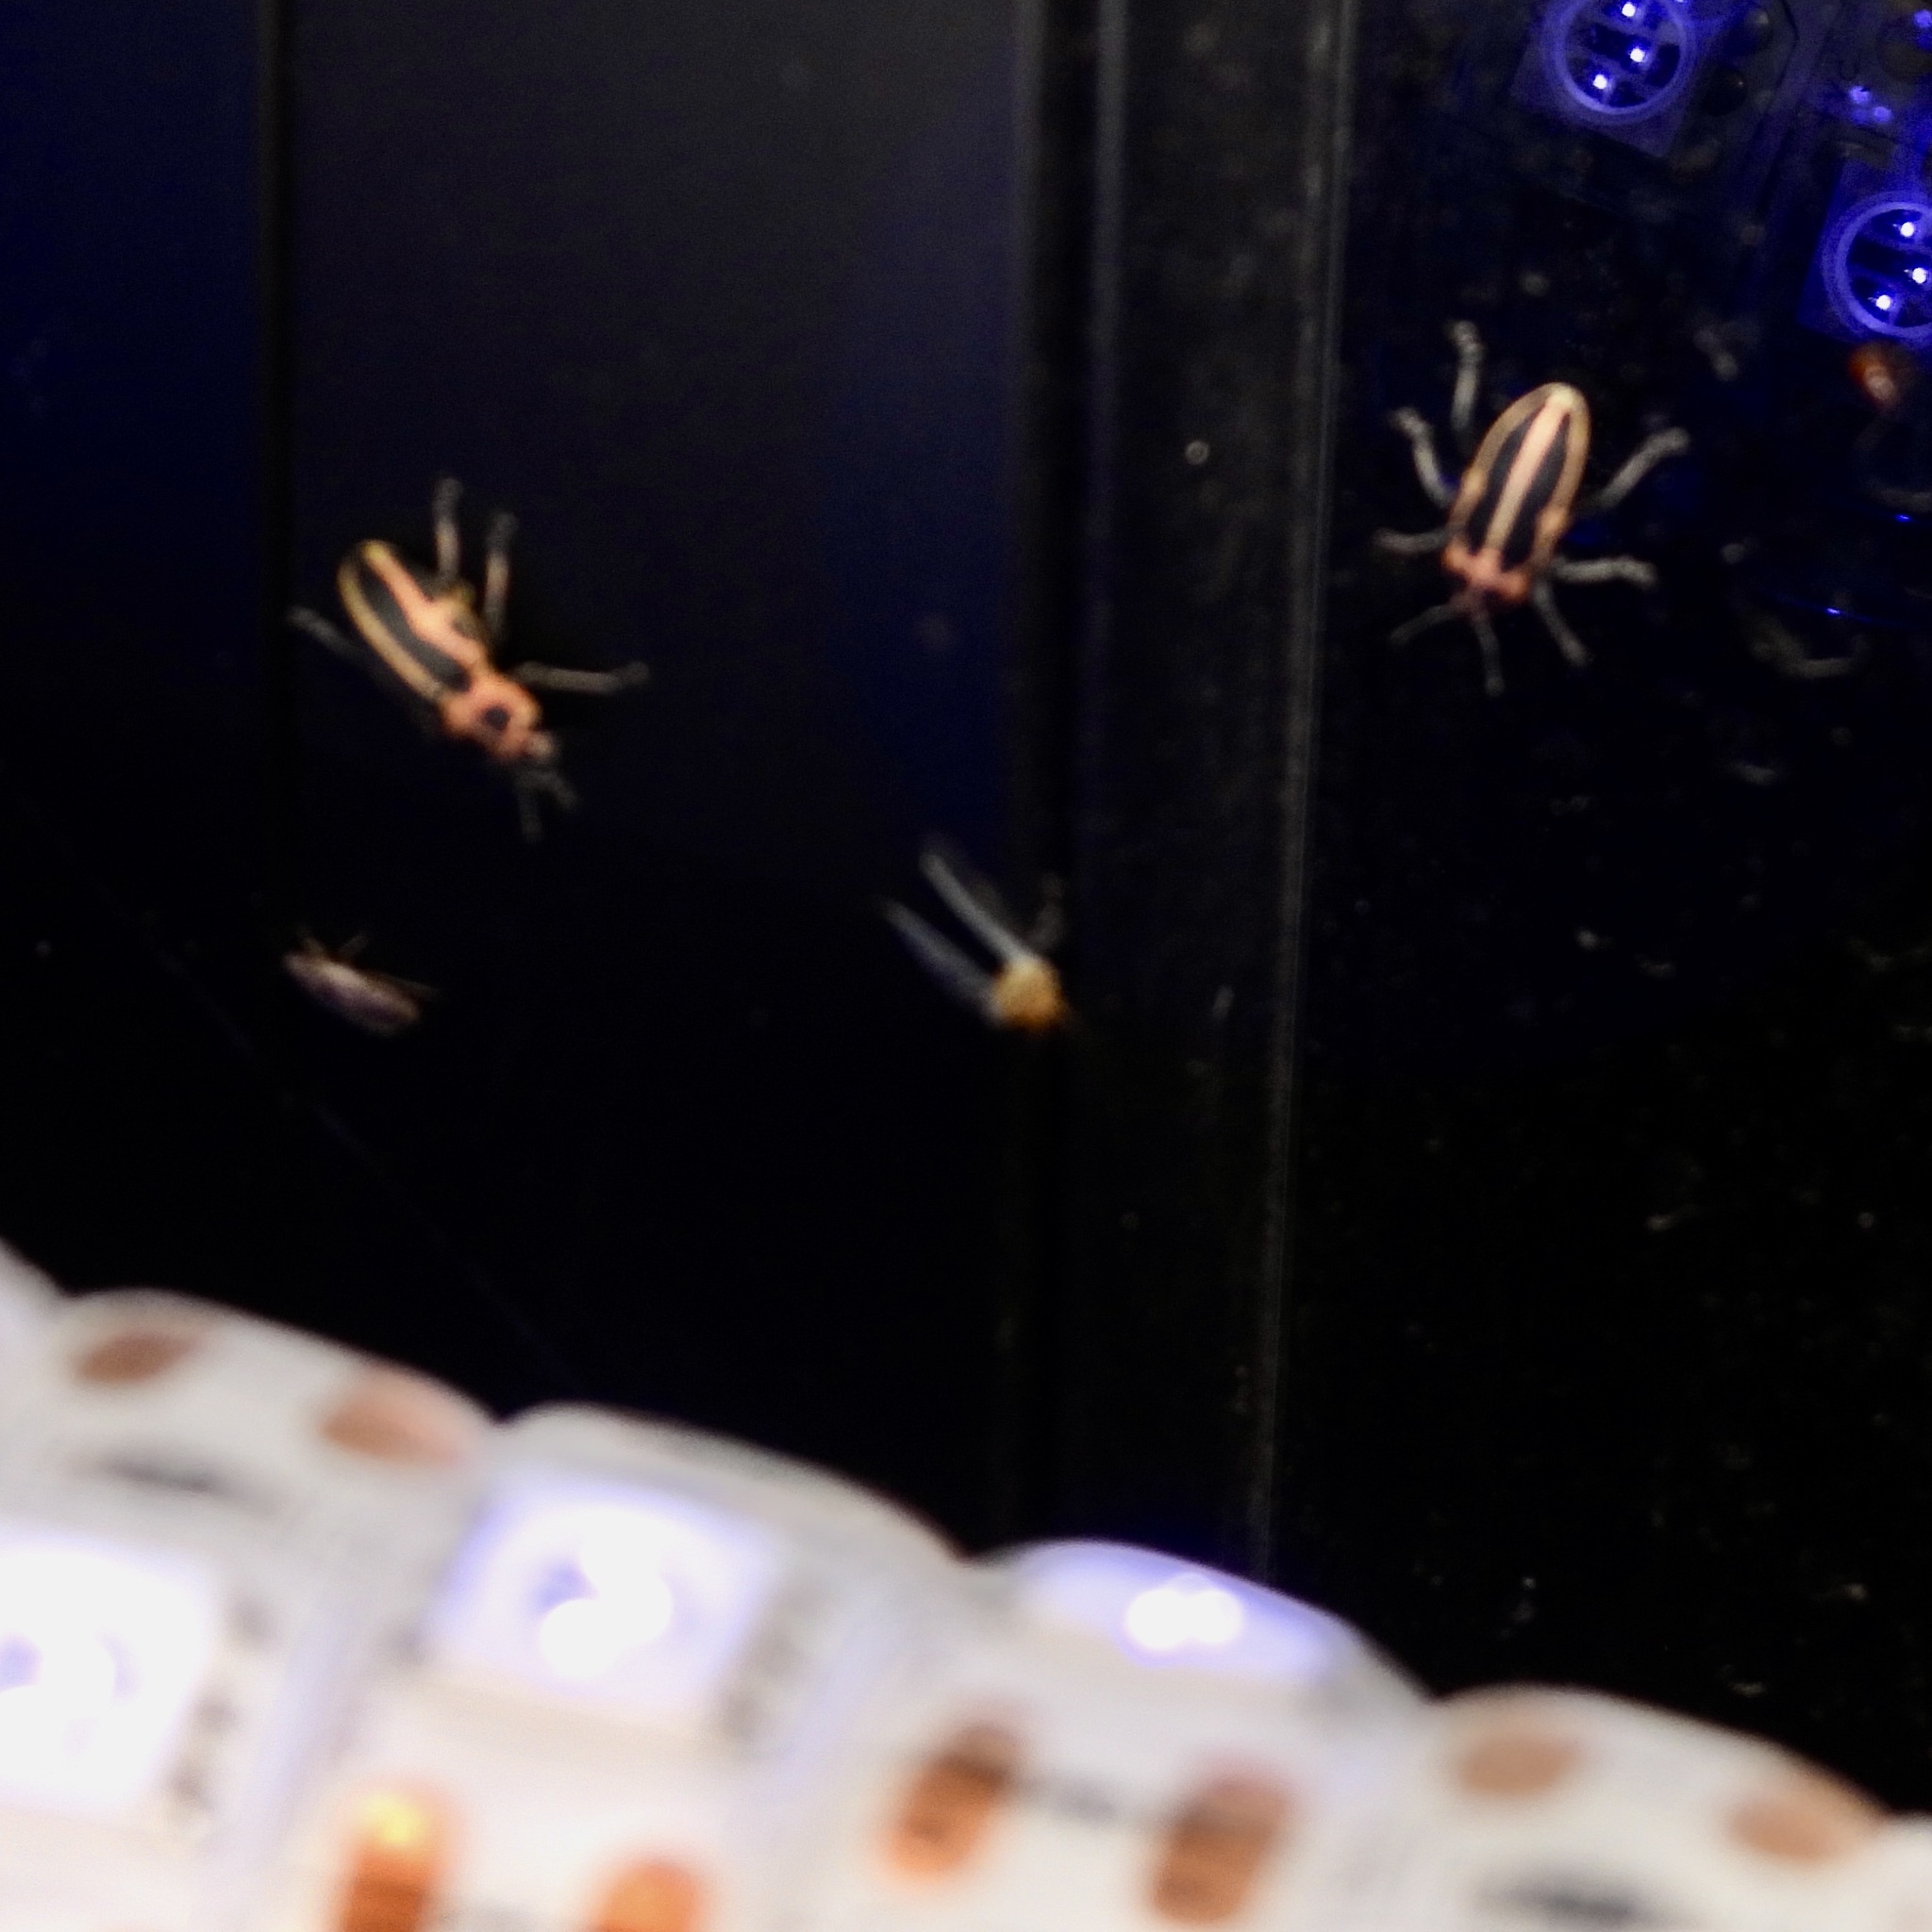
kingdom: Animalia
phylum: Arthropoda
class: Insecta
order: Coleoptera
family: Curculionidae
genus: Eudiagogus
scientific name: Eudiagogus pulcher
